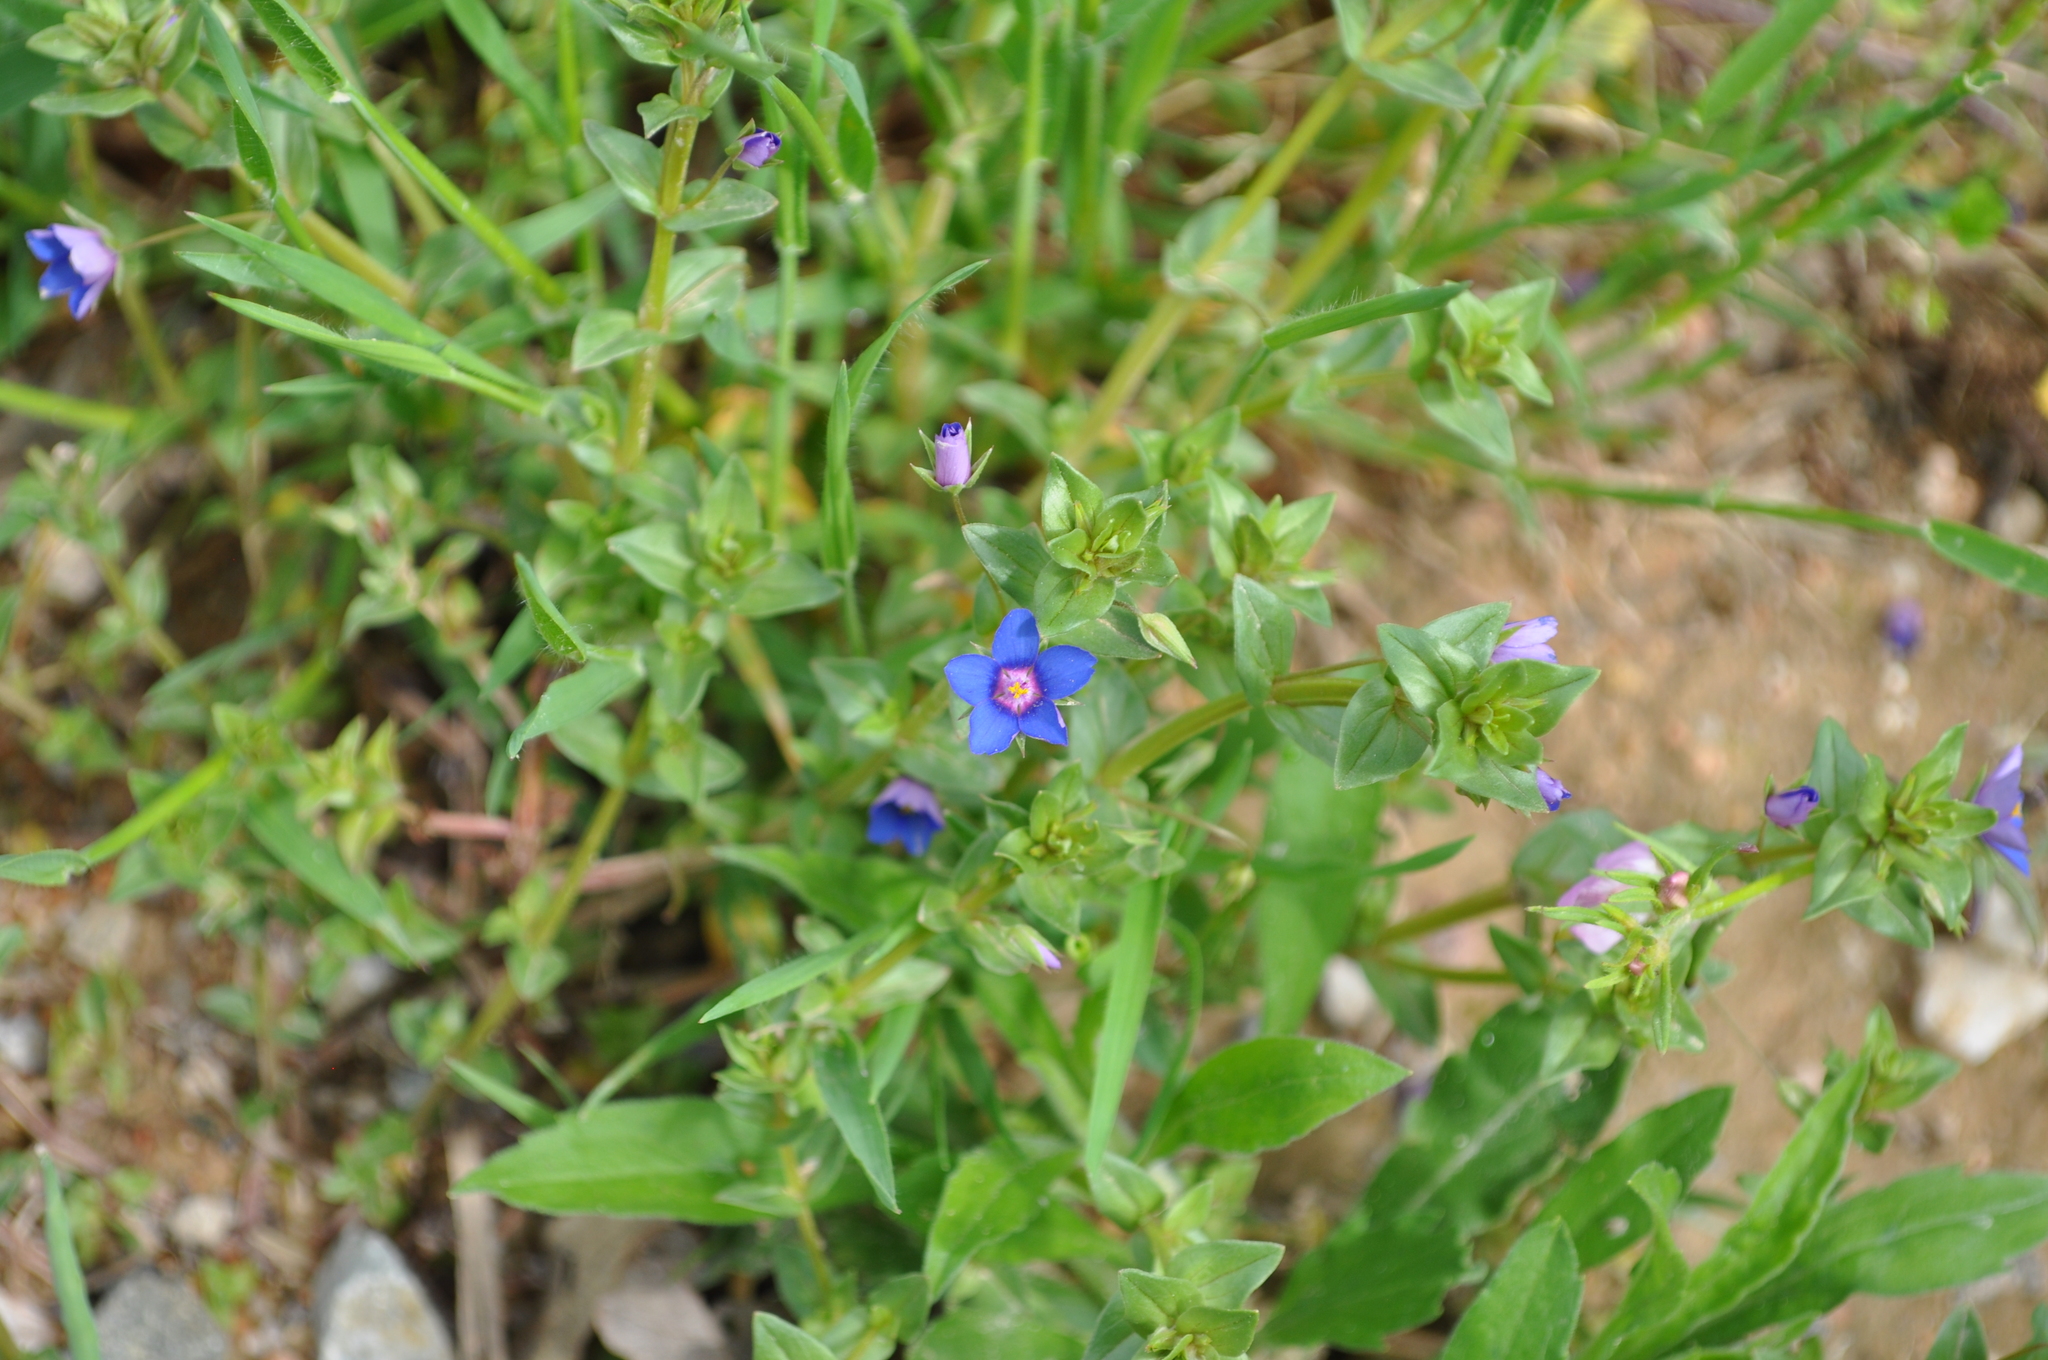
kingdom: Plantae
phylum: Tracheophyta
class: Magnoliopsida
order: Ericales
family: Primulaceae
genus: Lysimachia
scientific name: Lysimachia loeflingii
